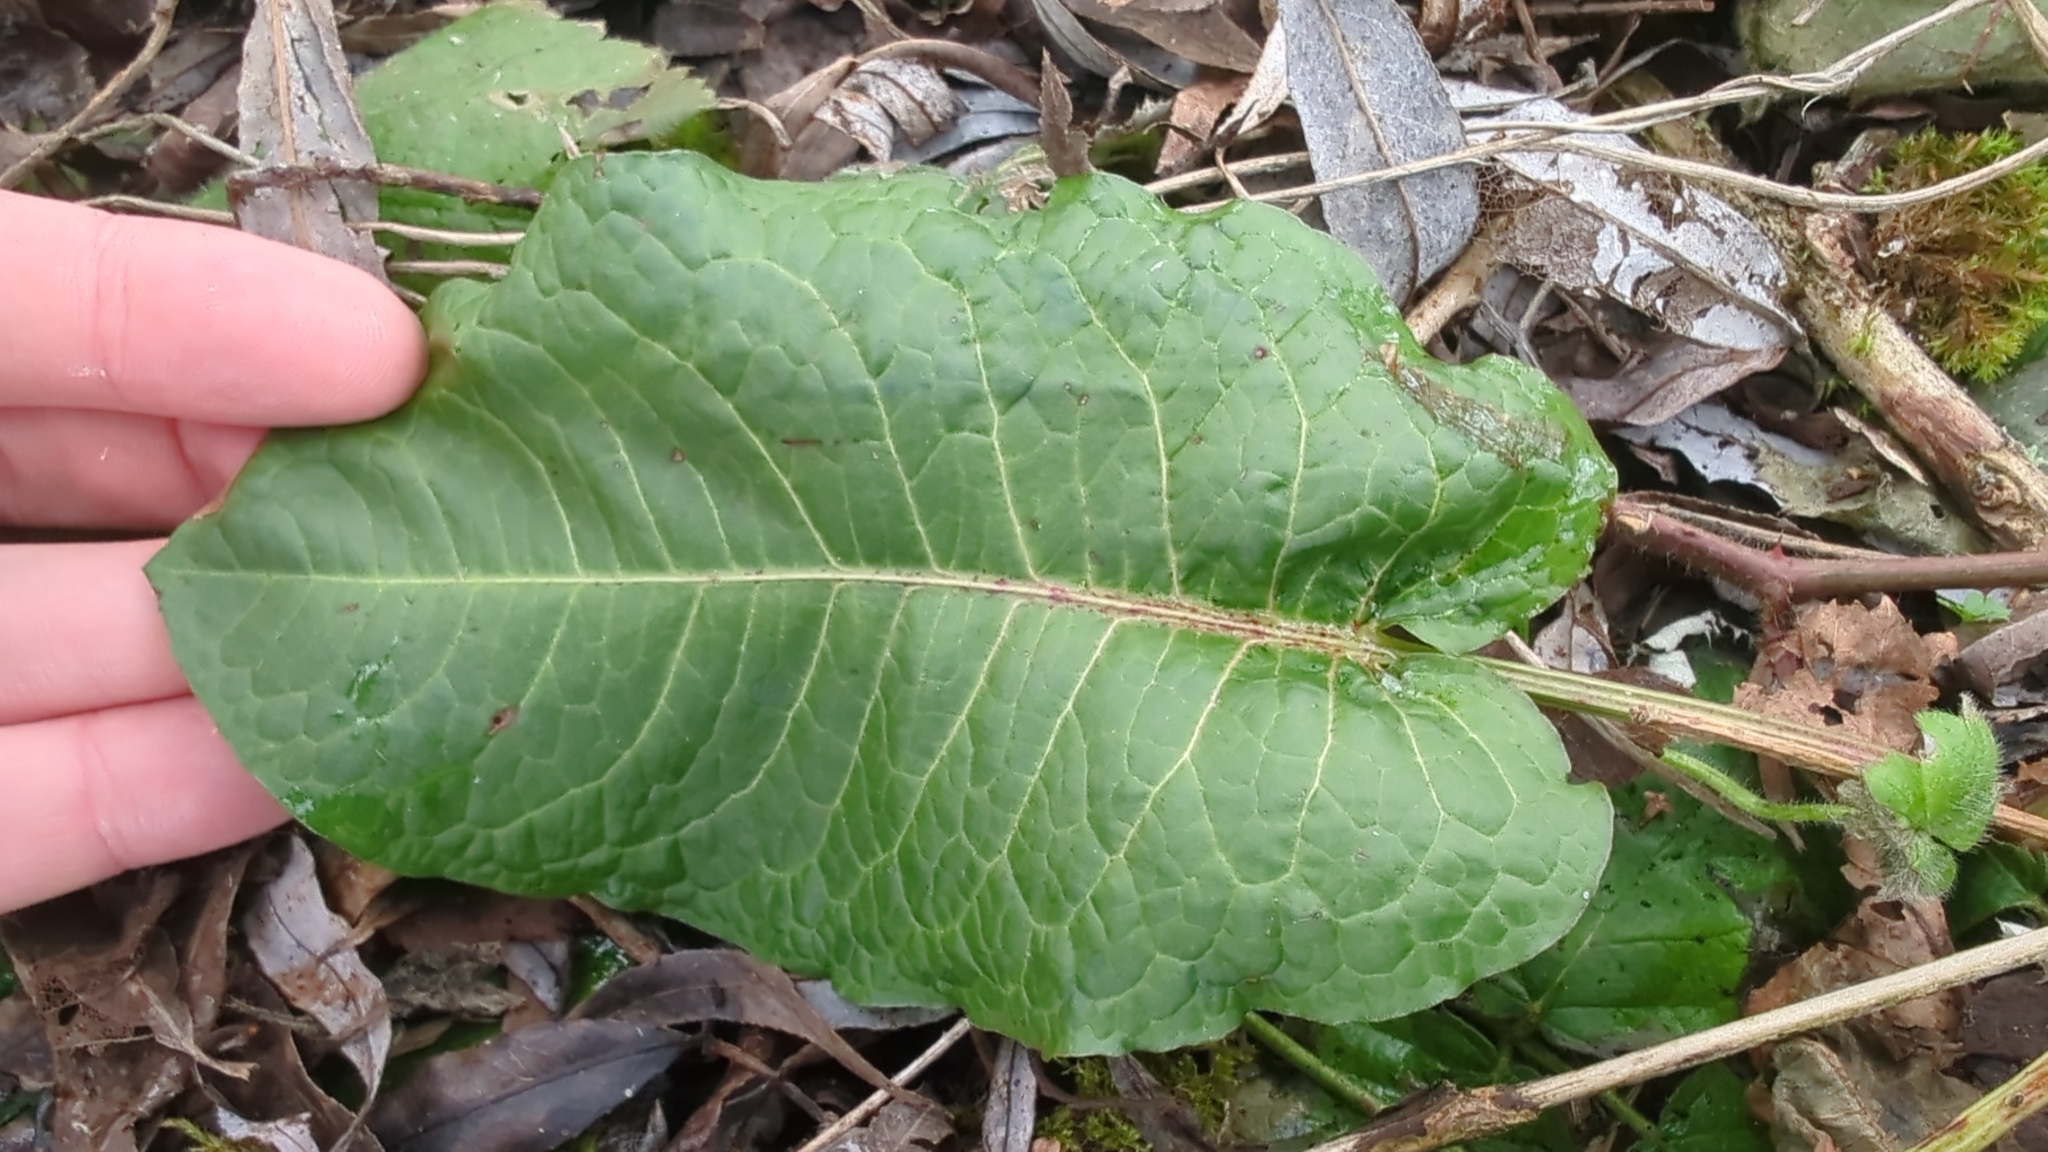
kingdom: Plantae
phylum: Tracheophyta
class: Magnoliopsida
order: Caryophyllales
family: Polygonaceae
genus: Rumex
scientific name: Rumex obtusifolius
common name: Bitter dock
